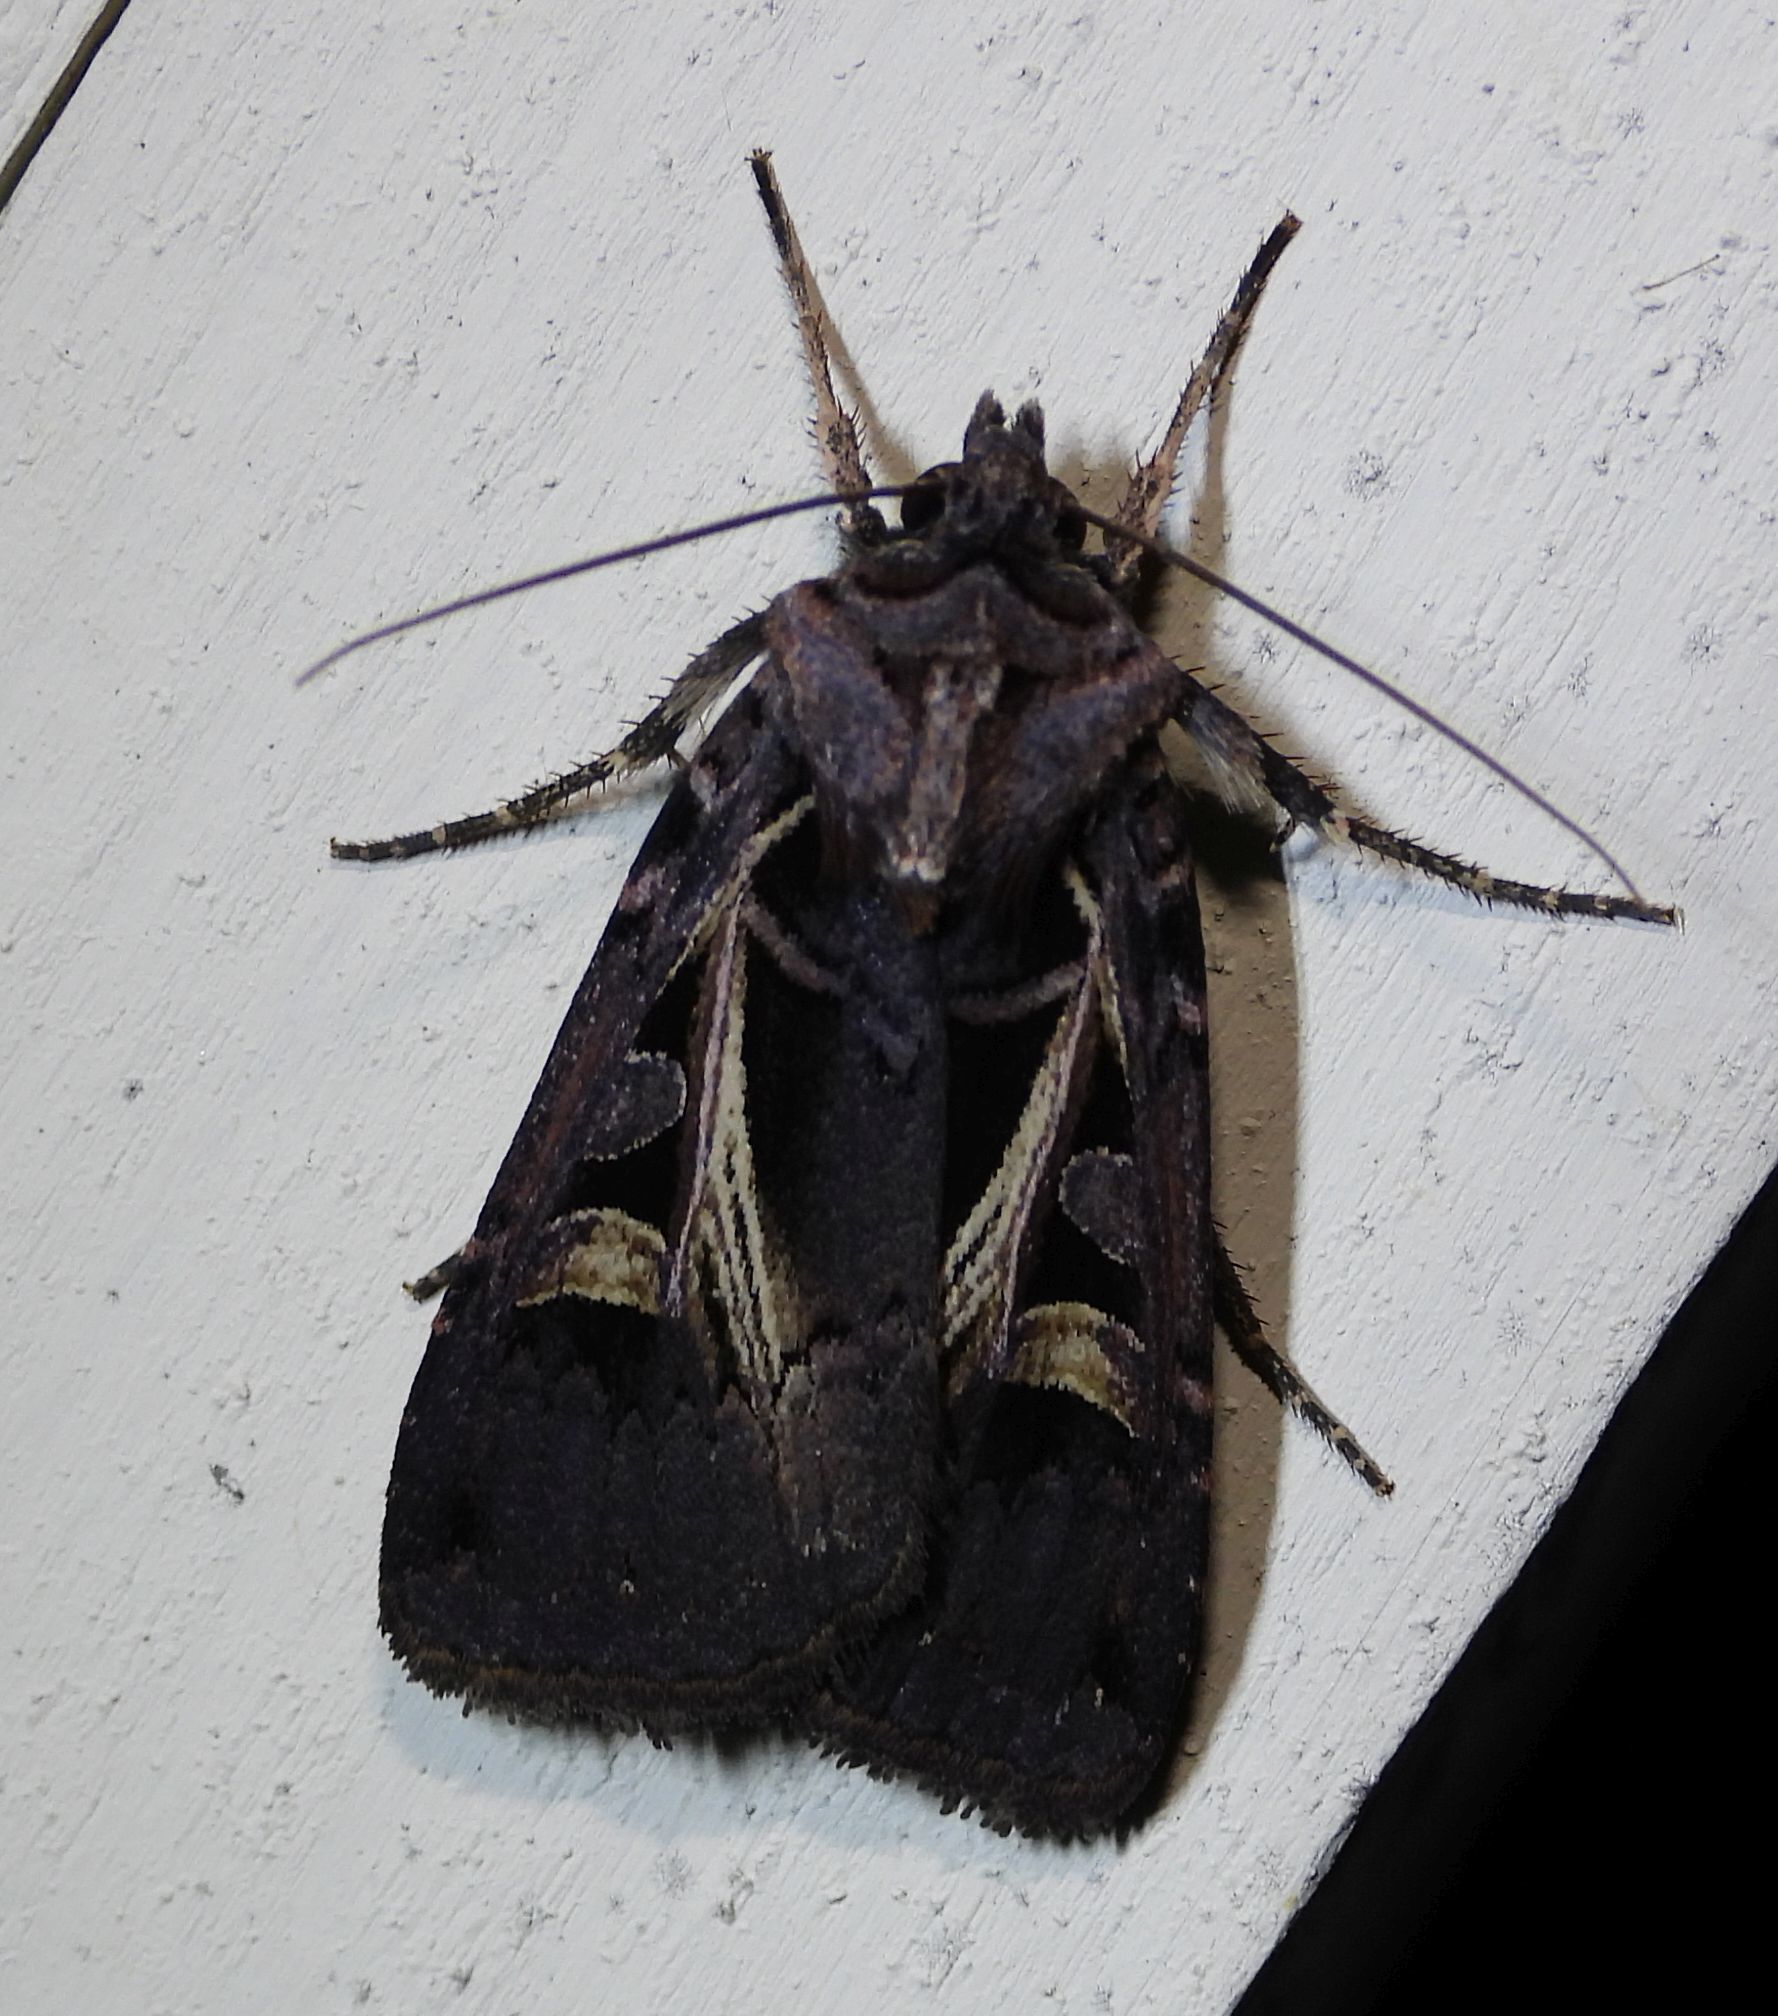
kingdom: Animalia
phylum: Arthropoda
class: Insecta
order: Lepidoptera
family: Noctuidae
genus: Feltia
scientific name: Feltia herilis
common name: Master's dart
